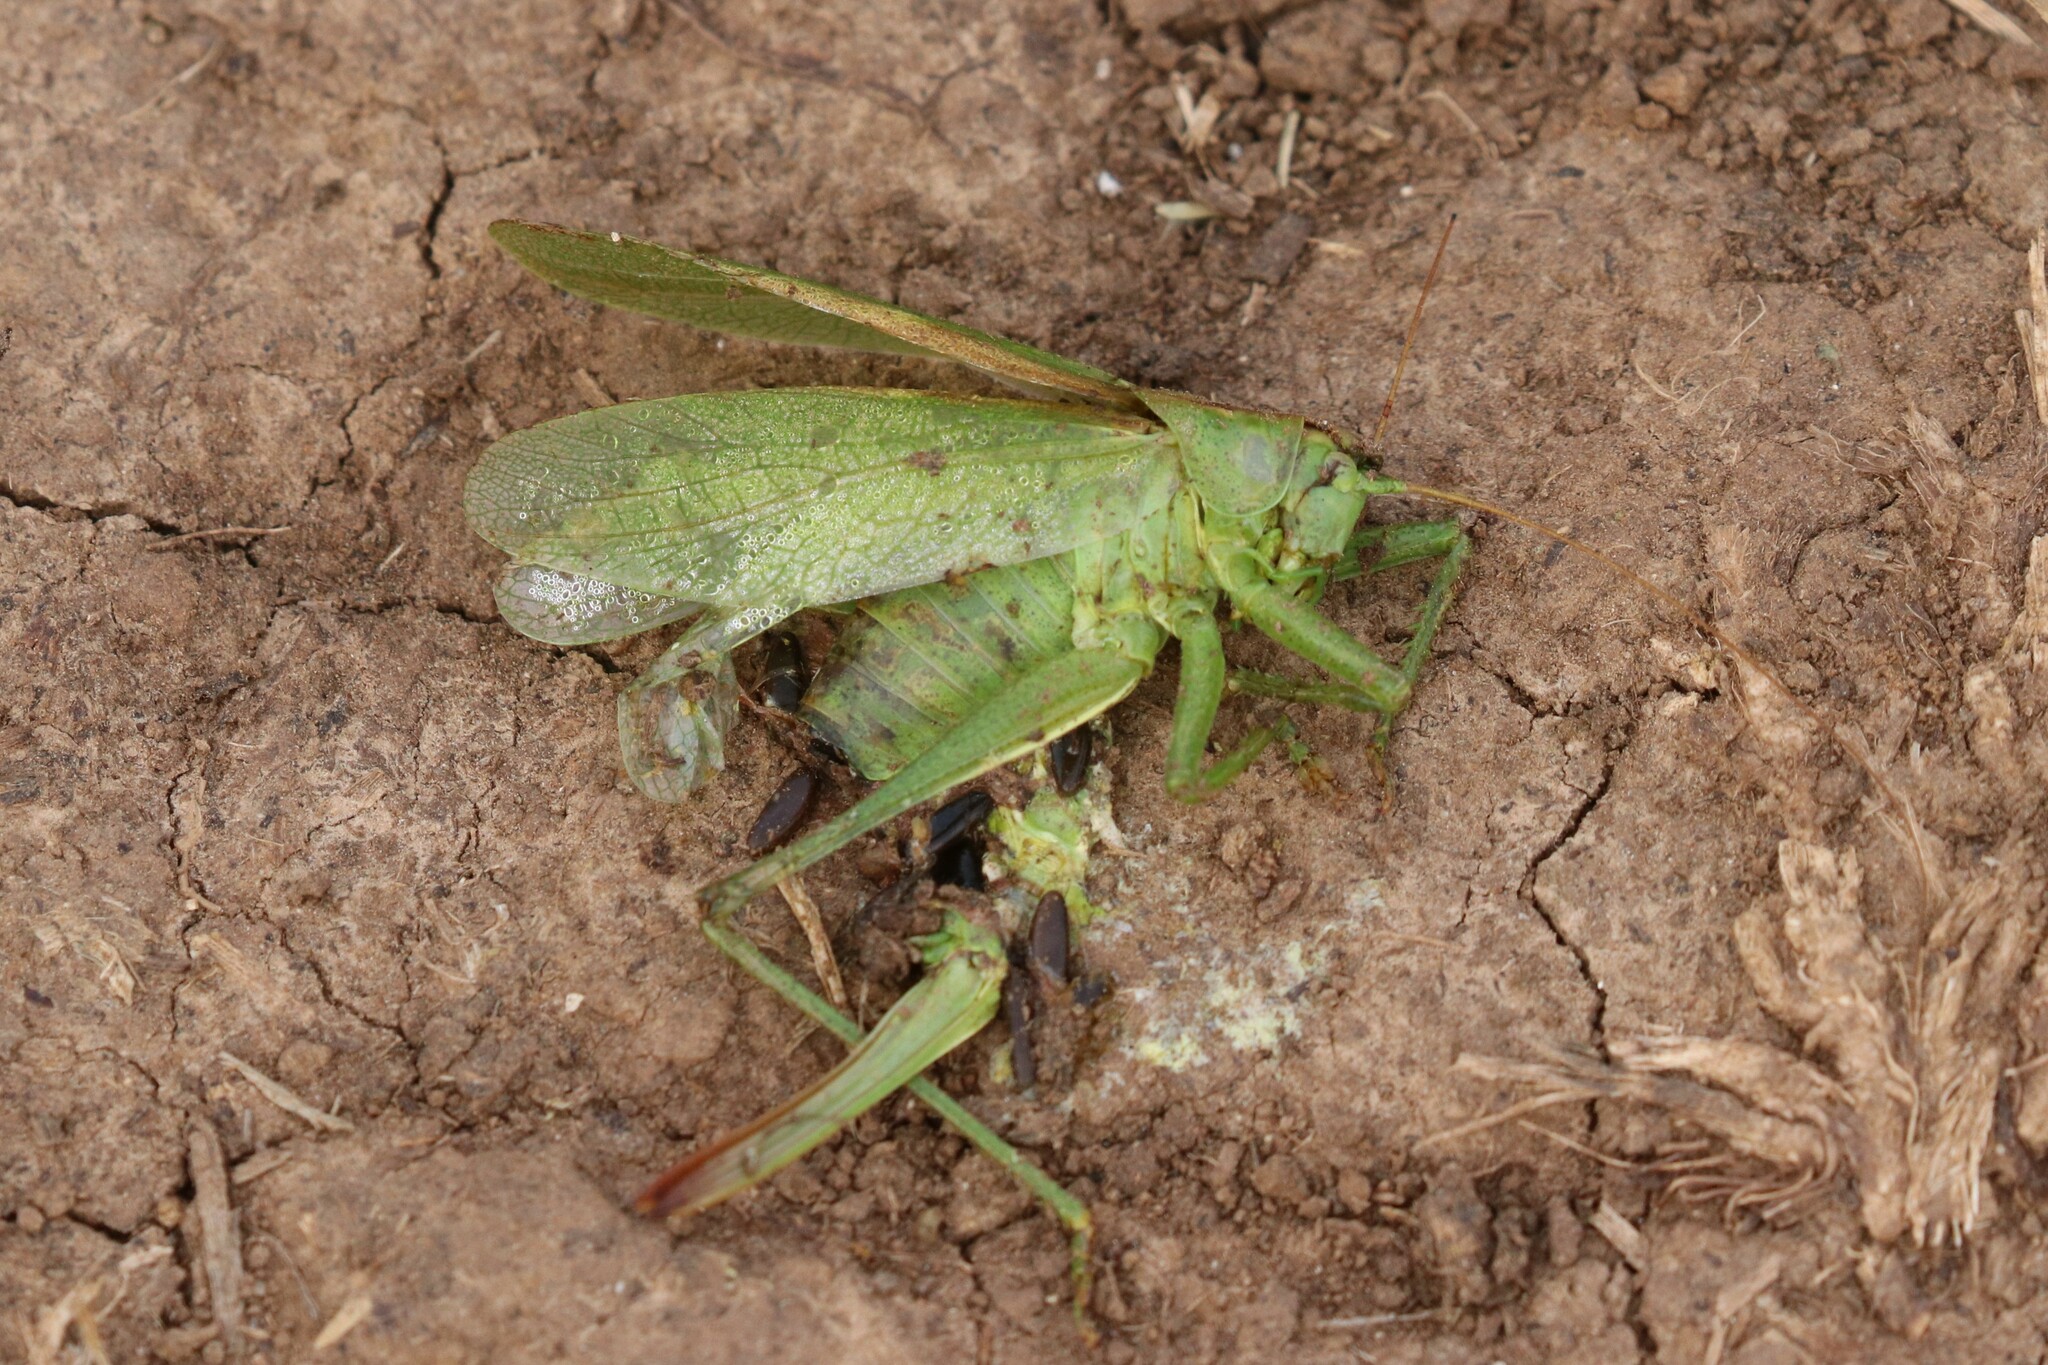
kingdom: Animalia
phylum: Arthropoda
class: Insecta
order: Orthoptera
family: Tettigoniidae
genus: Tettigonia
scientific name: Tettigonia cantans
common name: Upland green bush-cricket
